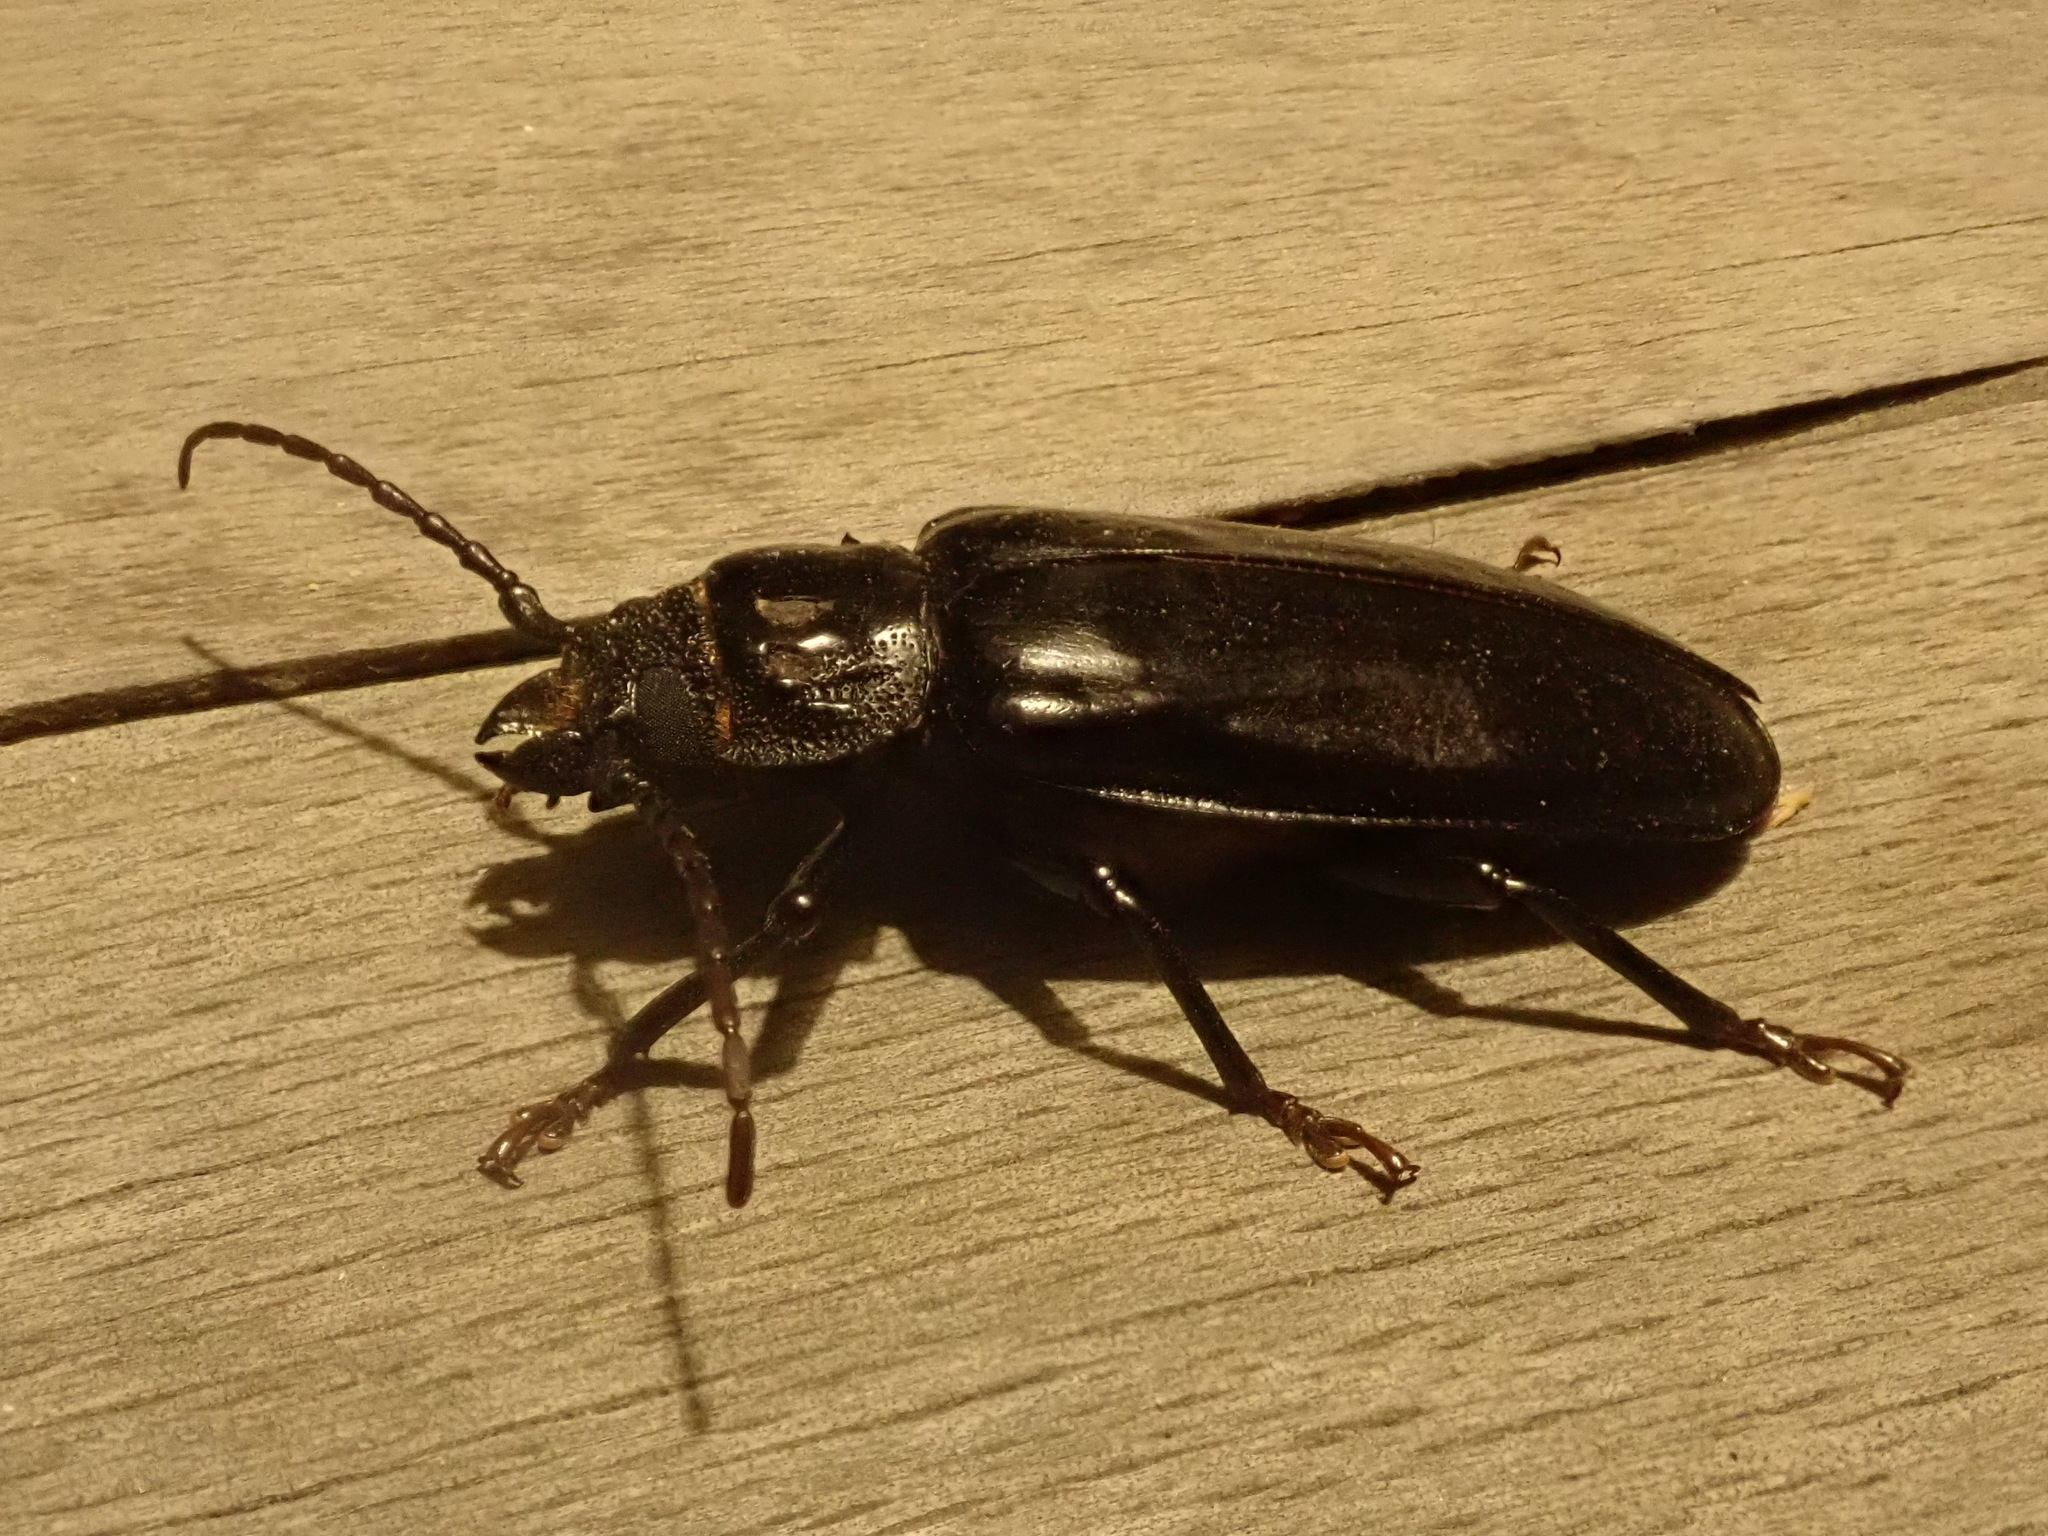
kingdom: Animalia
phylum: Arthropoda
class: Insecta
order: Coleoptera
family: Cerambycidae
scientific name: Cerambycidae
